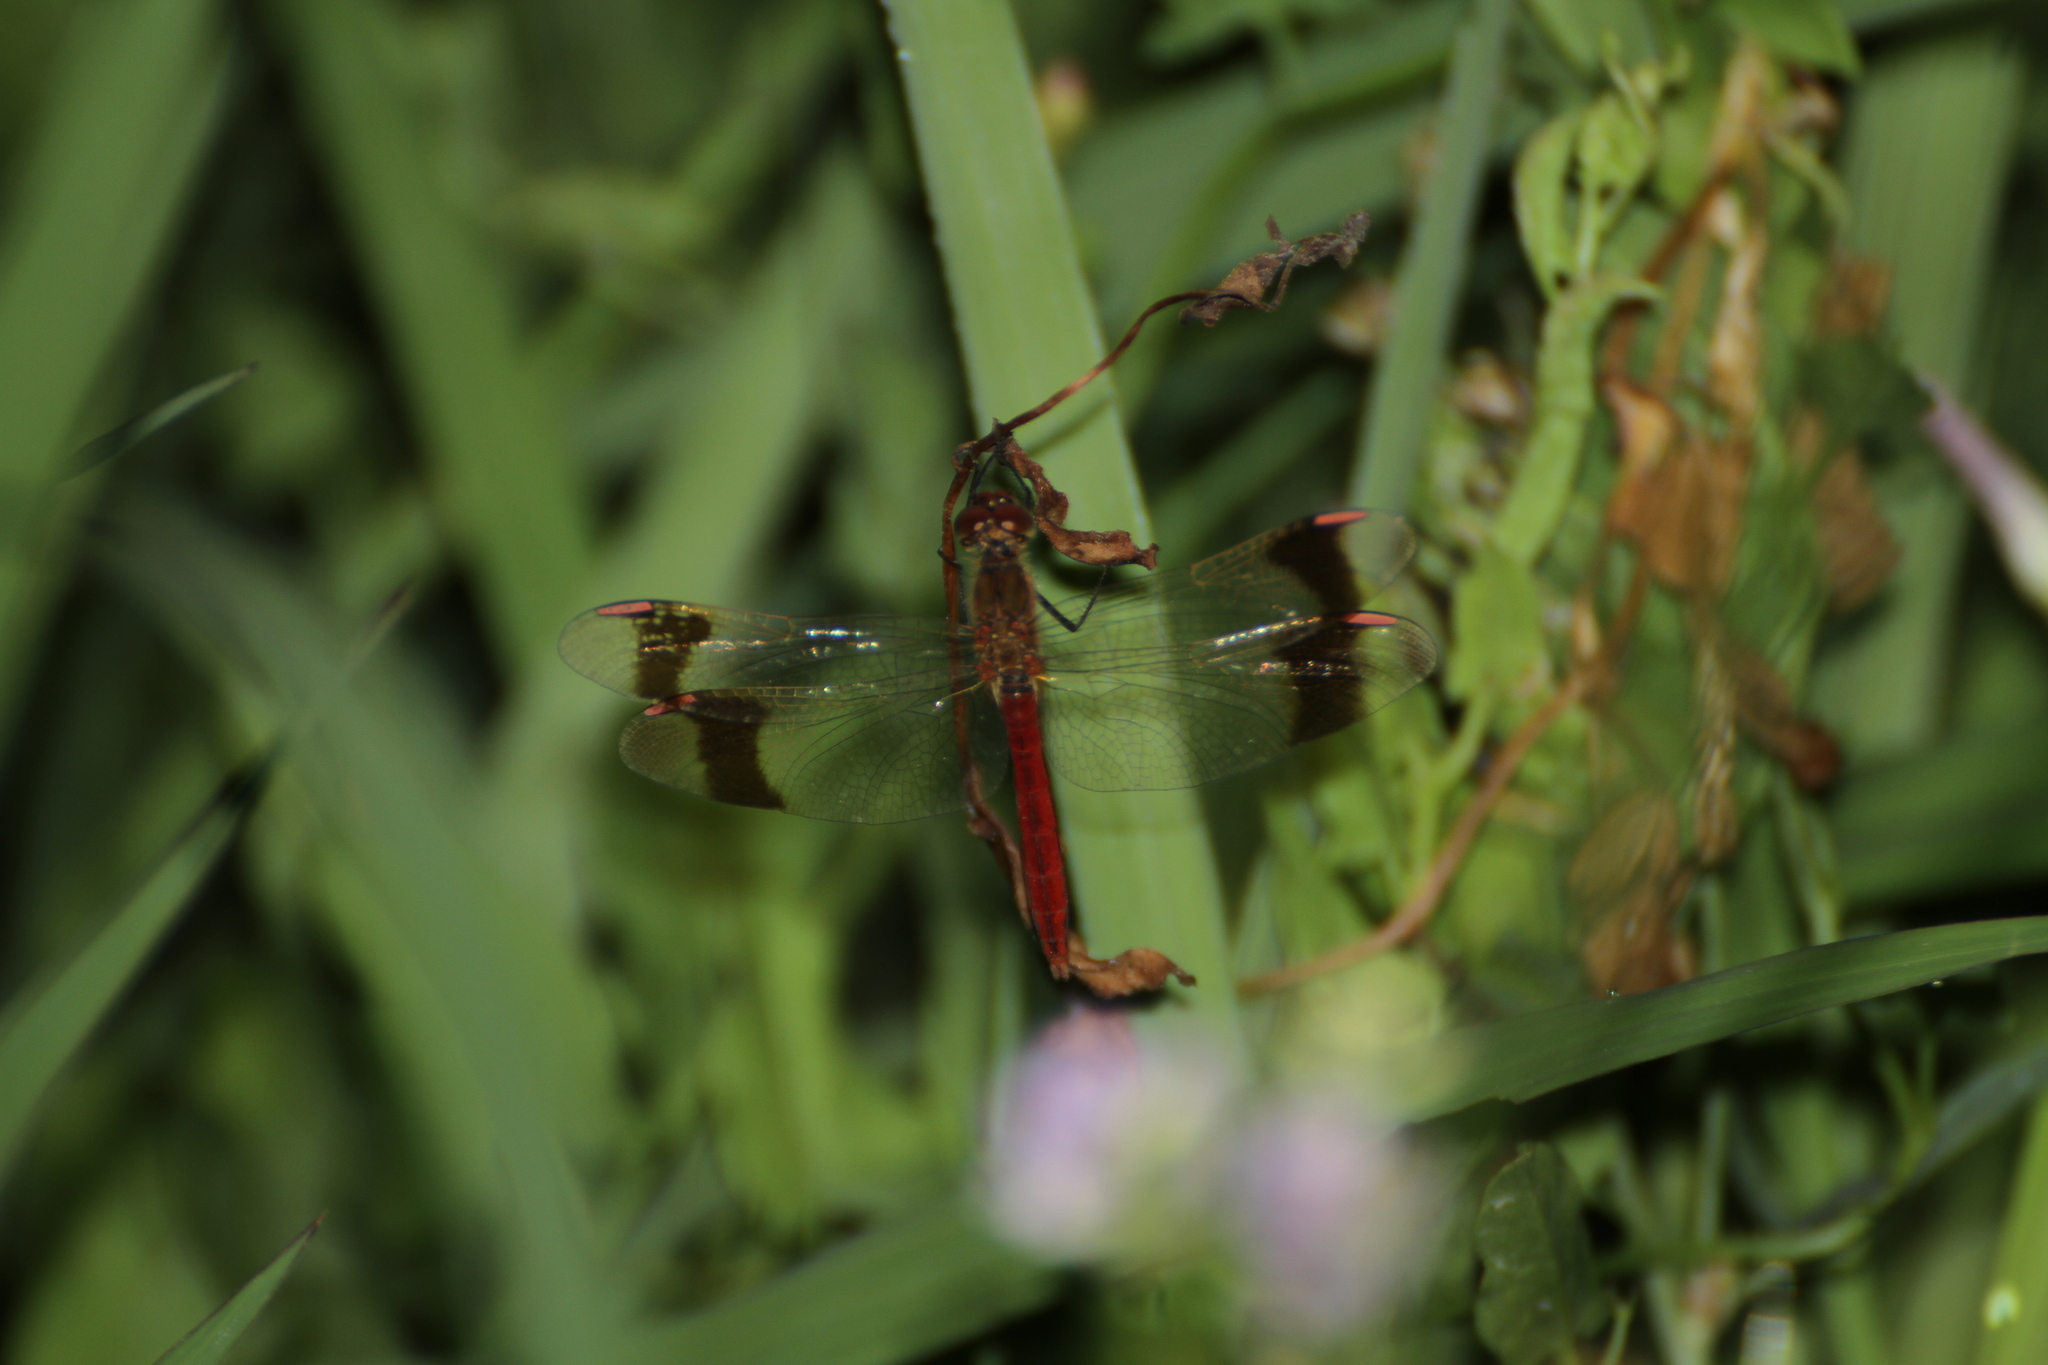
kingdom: Animalia
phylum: Arthropoda
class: Insecta
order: Odonata
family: Libellulidae
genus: Sympetrum
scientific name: Sympetrum pedemontanum
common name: Banded darter
